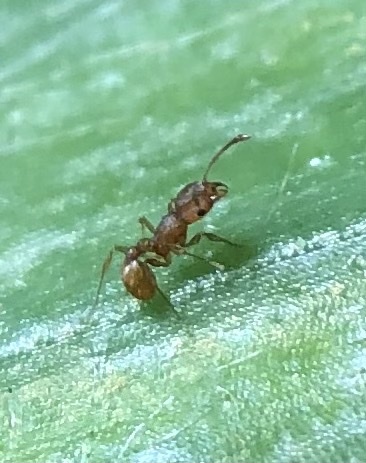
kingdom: Animalia
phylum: Arthropoda
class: Insecta
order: Hymenoptera
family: Formicidae
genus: Wasmannia
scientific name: Wasmannia auropunctata
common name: Little fire ant
